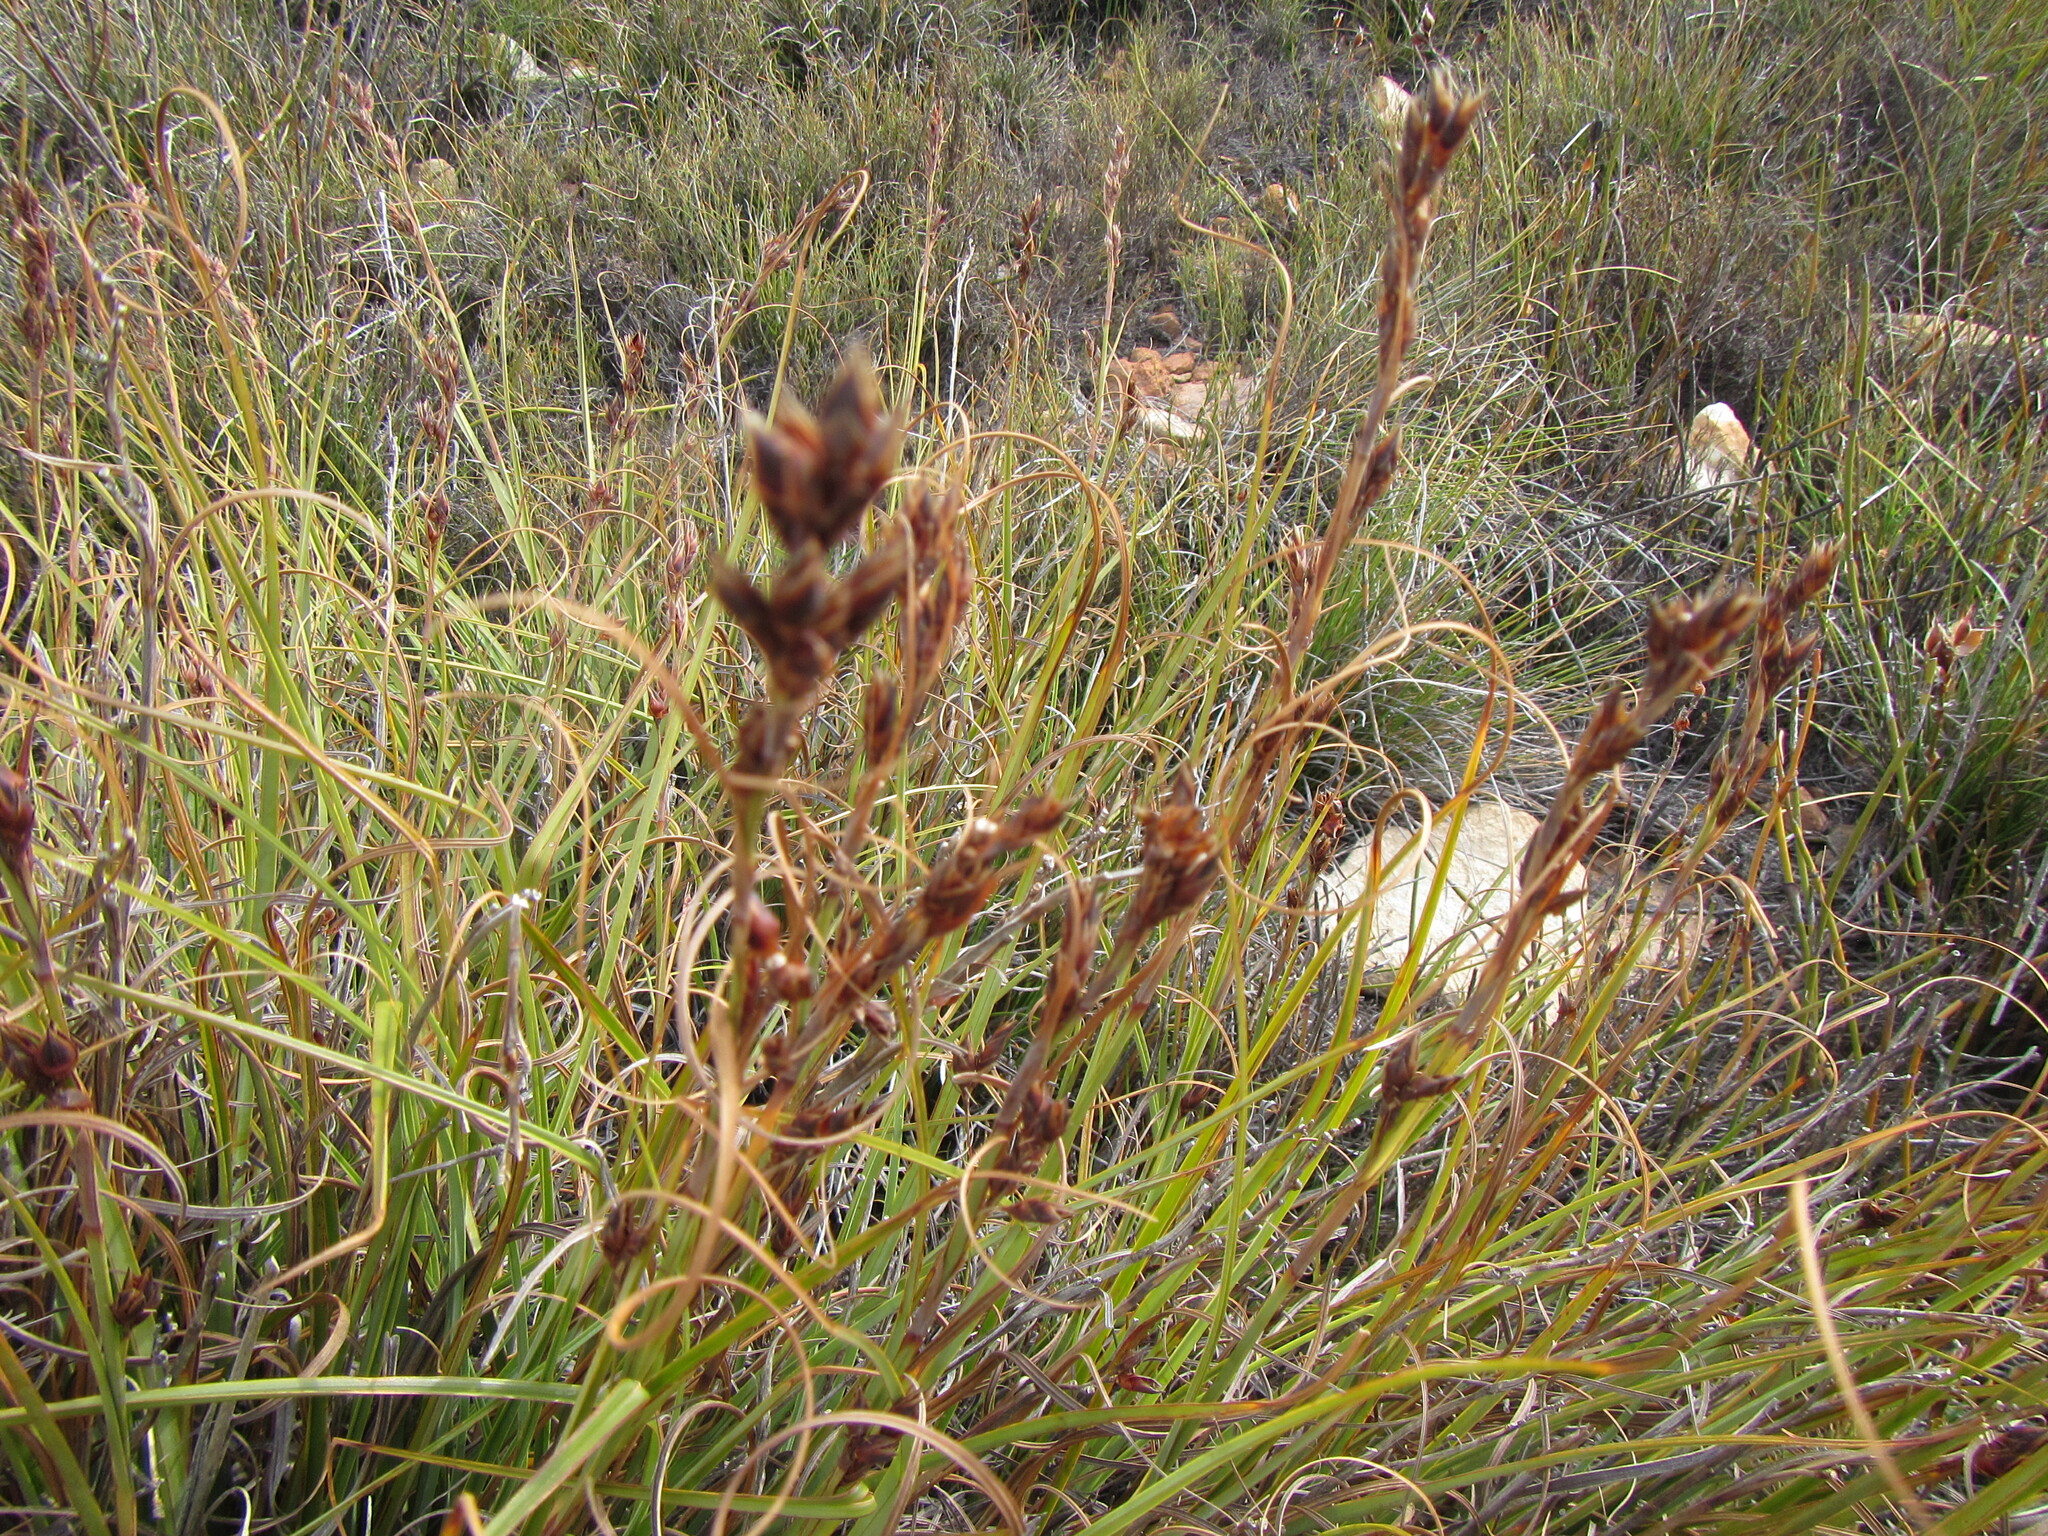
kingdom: Plantae
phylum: Tracheophyta
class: Liliopsida
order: Poales
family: Cyperaceae
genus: Tetraria
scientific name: Tetraria triangularis
